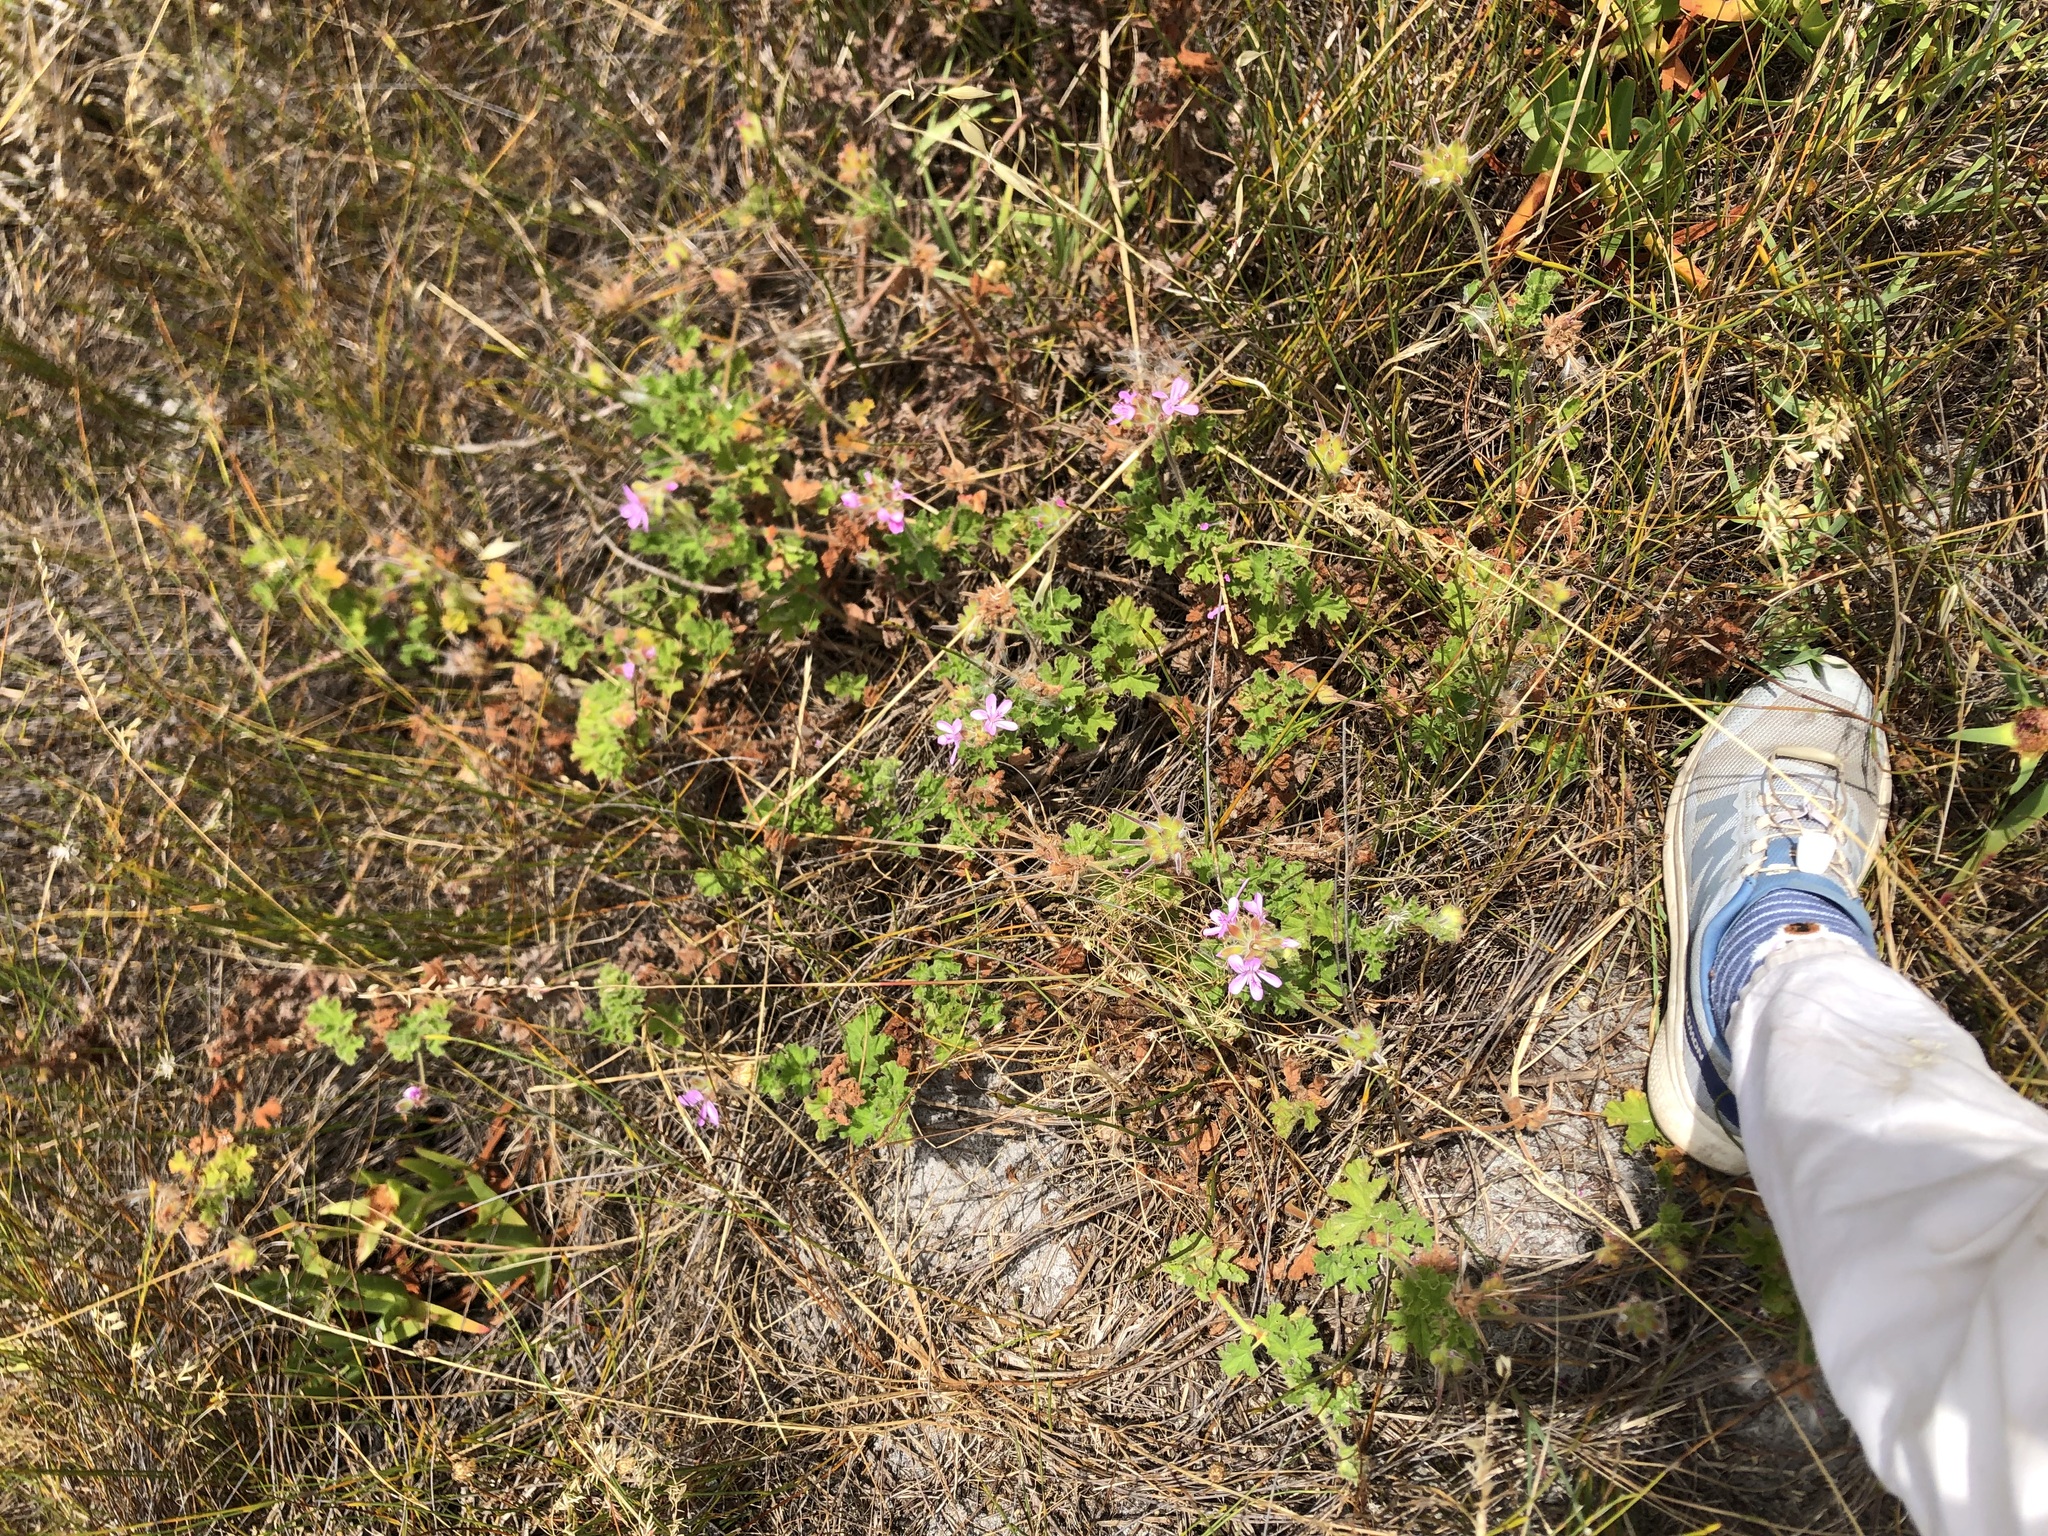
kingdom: Plantae
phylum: Tracheophyta
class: Magnoliopsida
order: Geraniales
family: Geraniaceae
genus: Pelargonium
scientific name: Pelargonium capitatum
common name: Rose scented geranium
